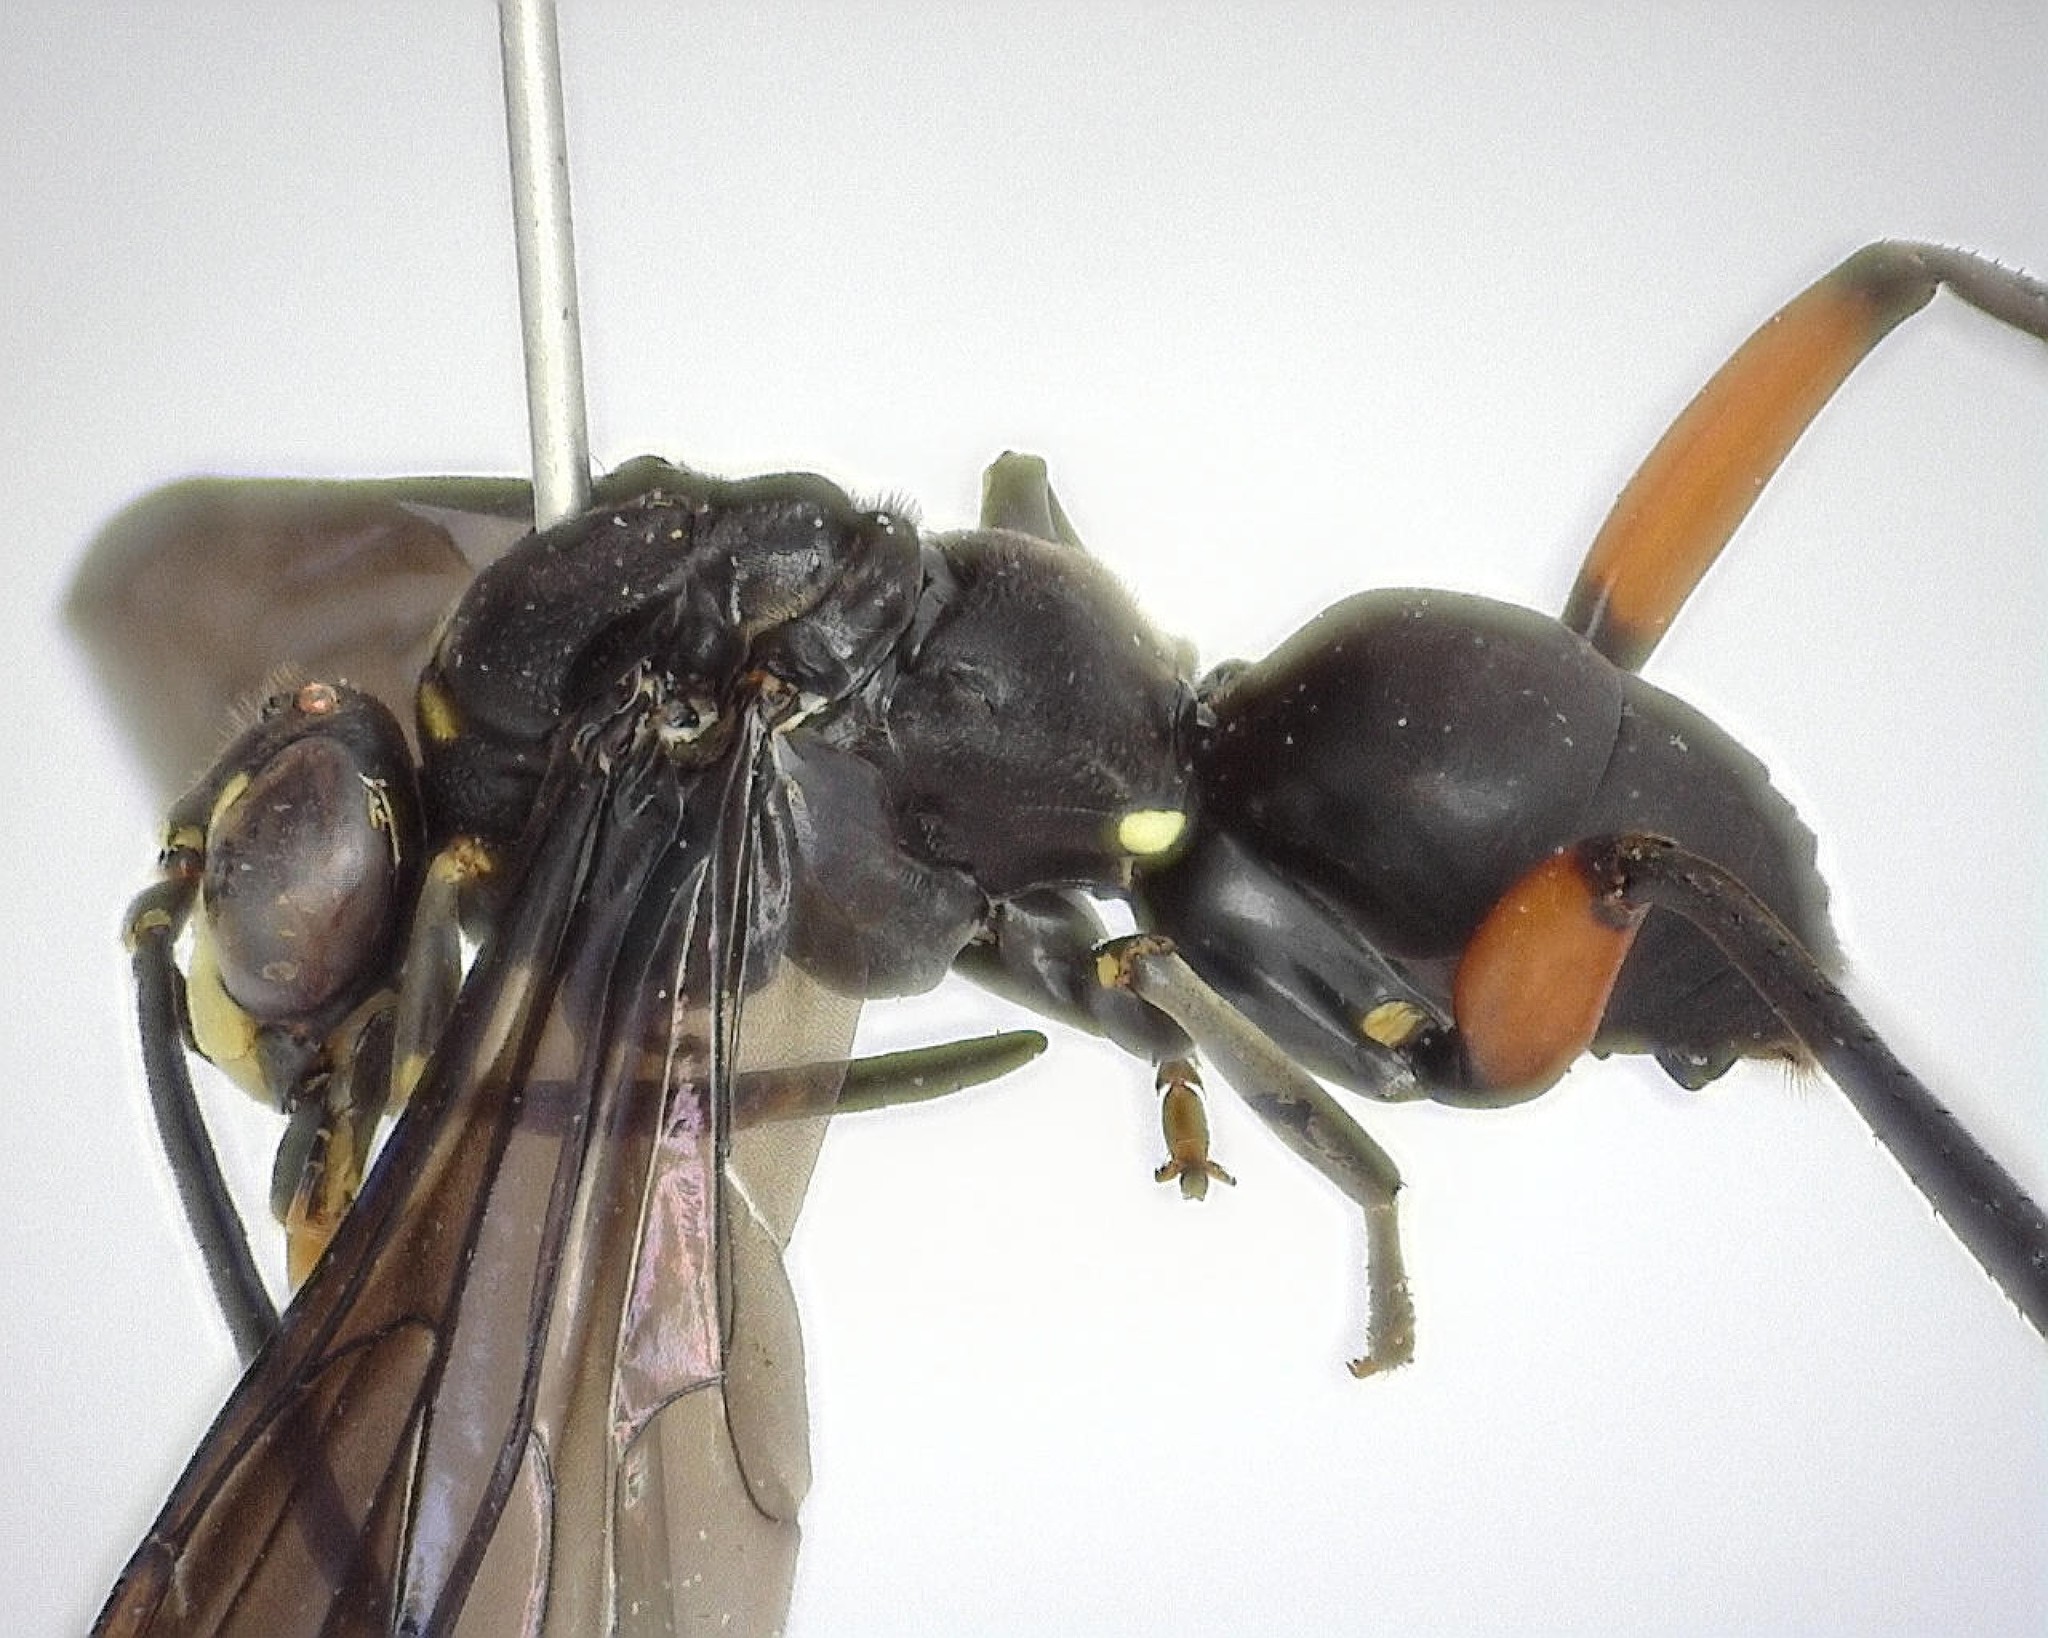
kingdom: Animalia
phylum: Arthropoda
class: Insecta
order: Hymenoptera
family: Pompilidae
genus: Ceropales
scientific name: Ceropales bipunctata
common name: Two-speckled cuckoo spider wasp
